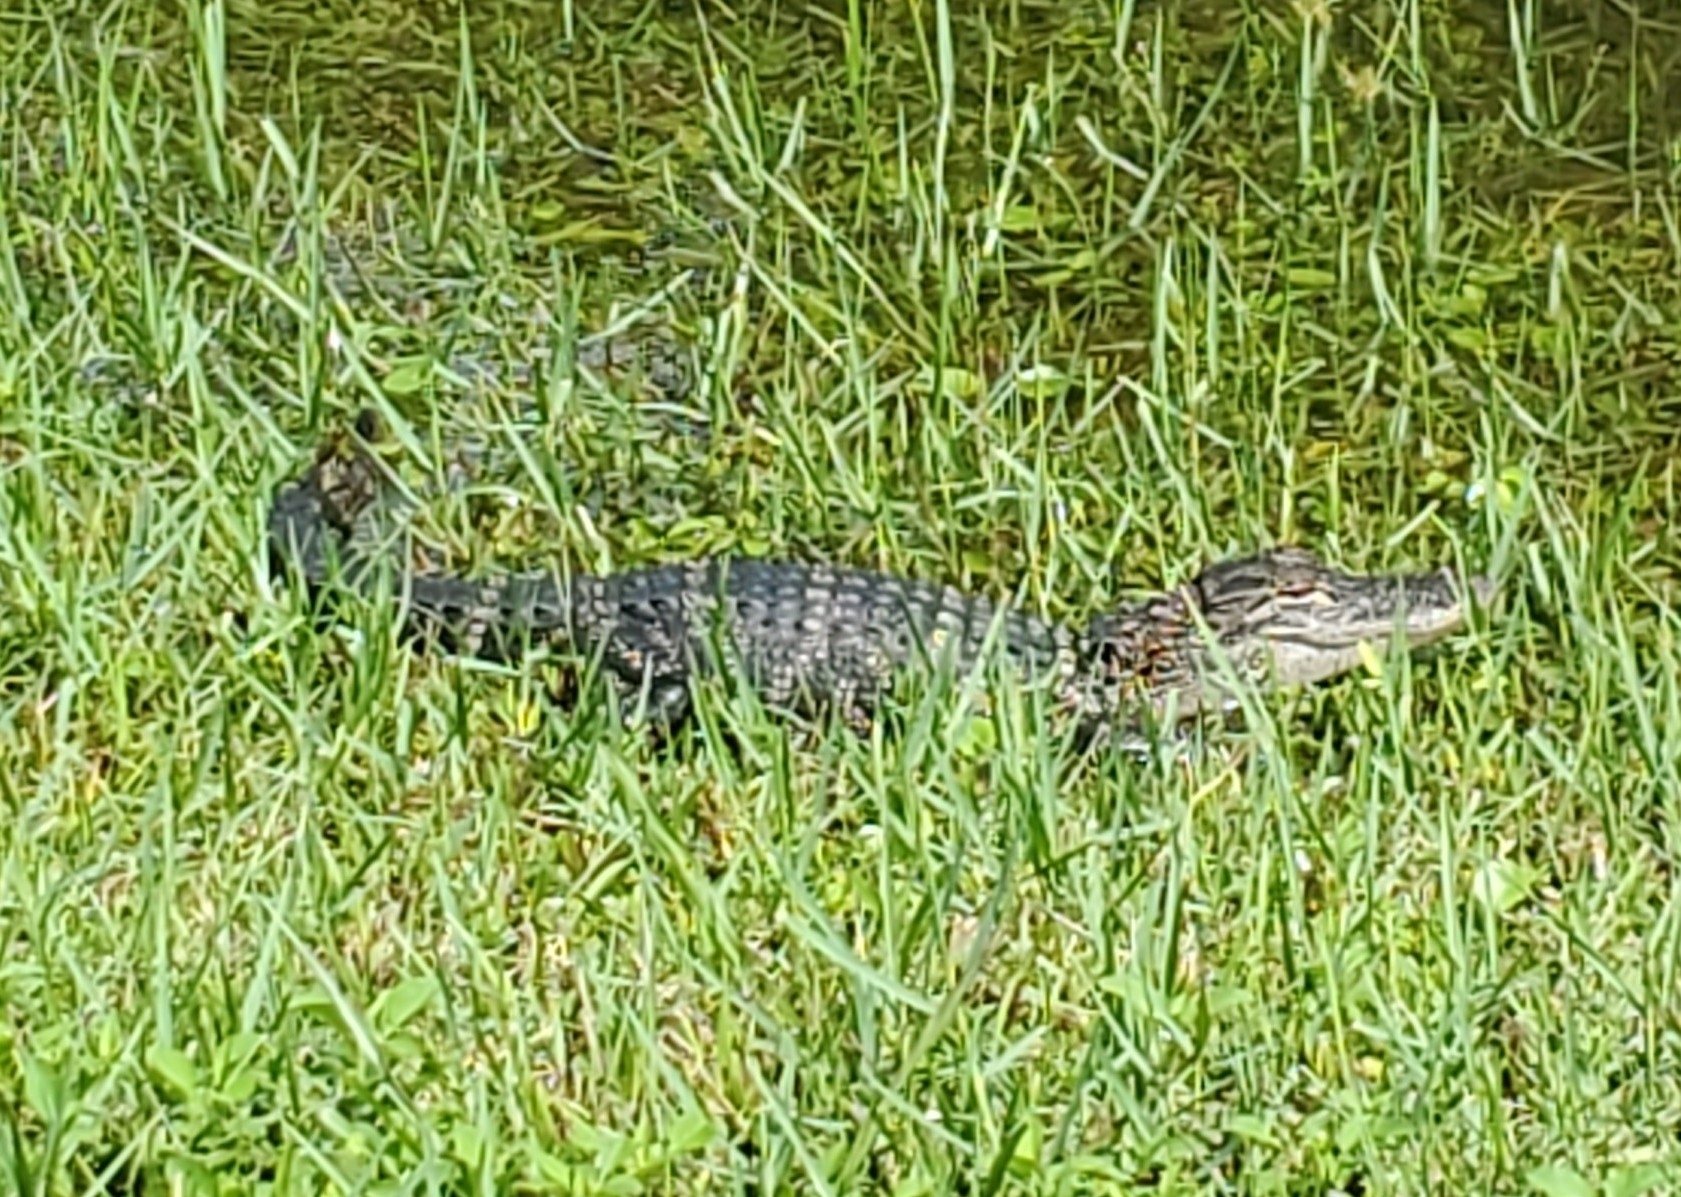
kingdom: Animalia
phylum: Chordata
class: Crocodylia
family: Alligatoridae
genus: Alligator
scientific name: Alligator mississippiensis
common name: American alligator
